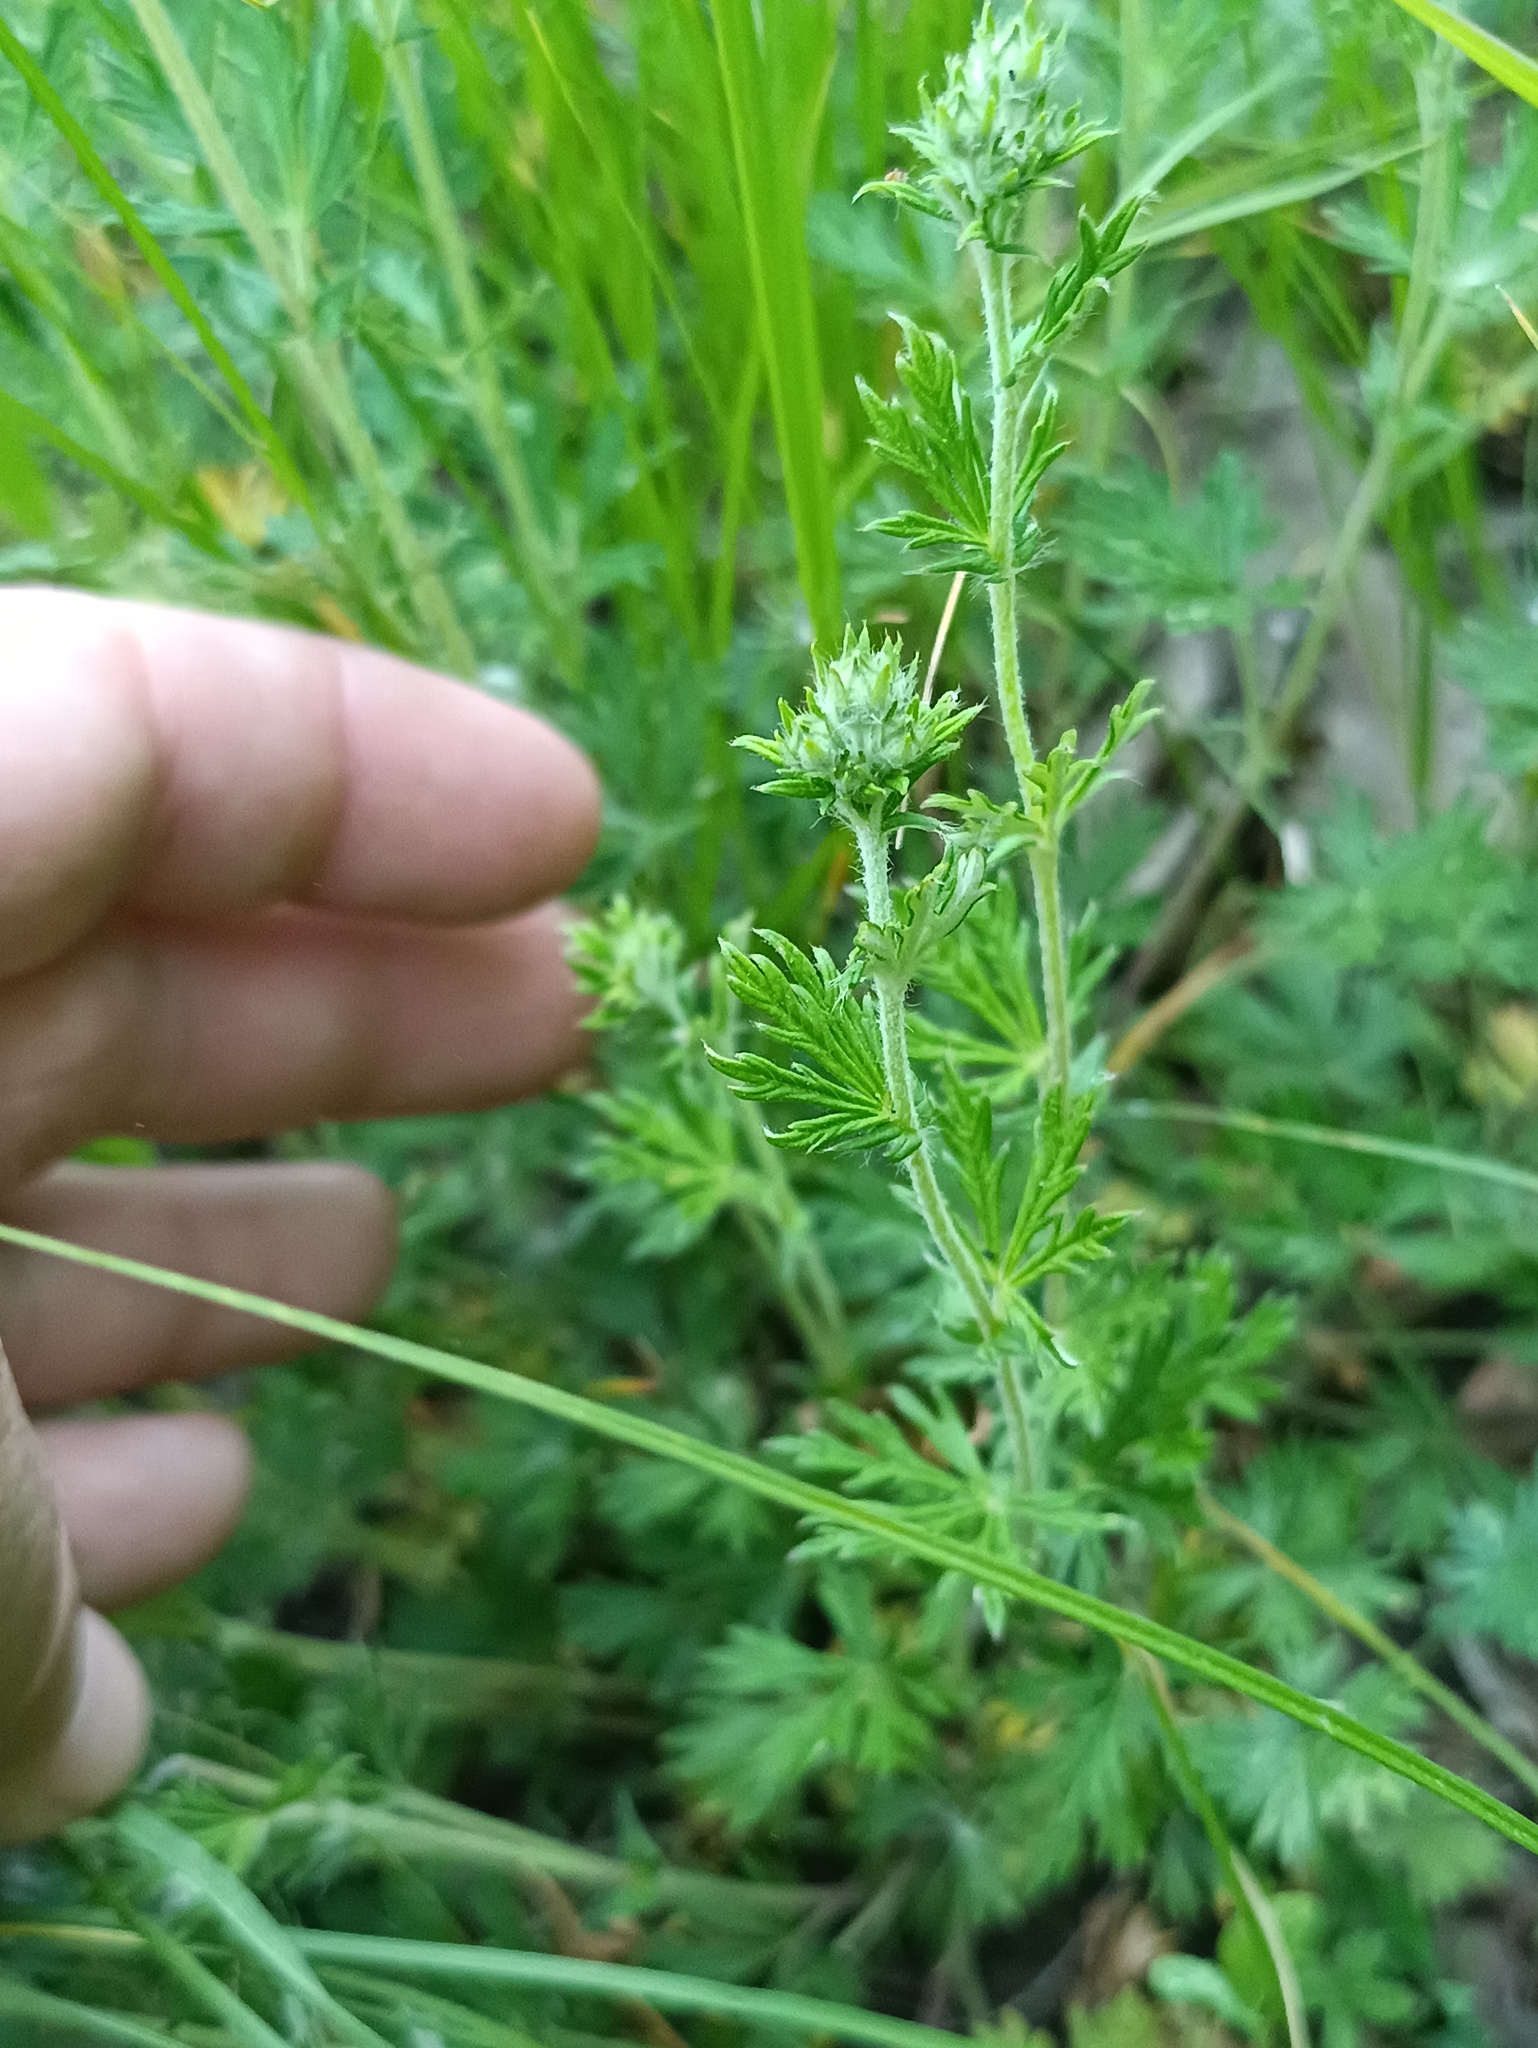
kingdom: Plantae
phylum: Tracheophyta
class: Magnoliopsida
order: Rosales
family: Rosaceae
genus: Potentilla
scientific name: Potentilla argentea
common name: Hoary cinquefoil
